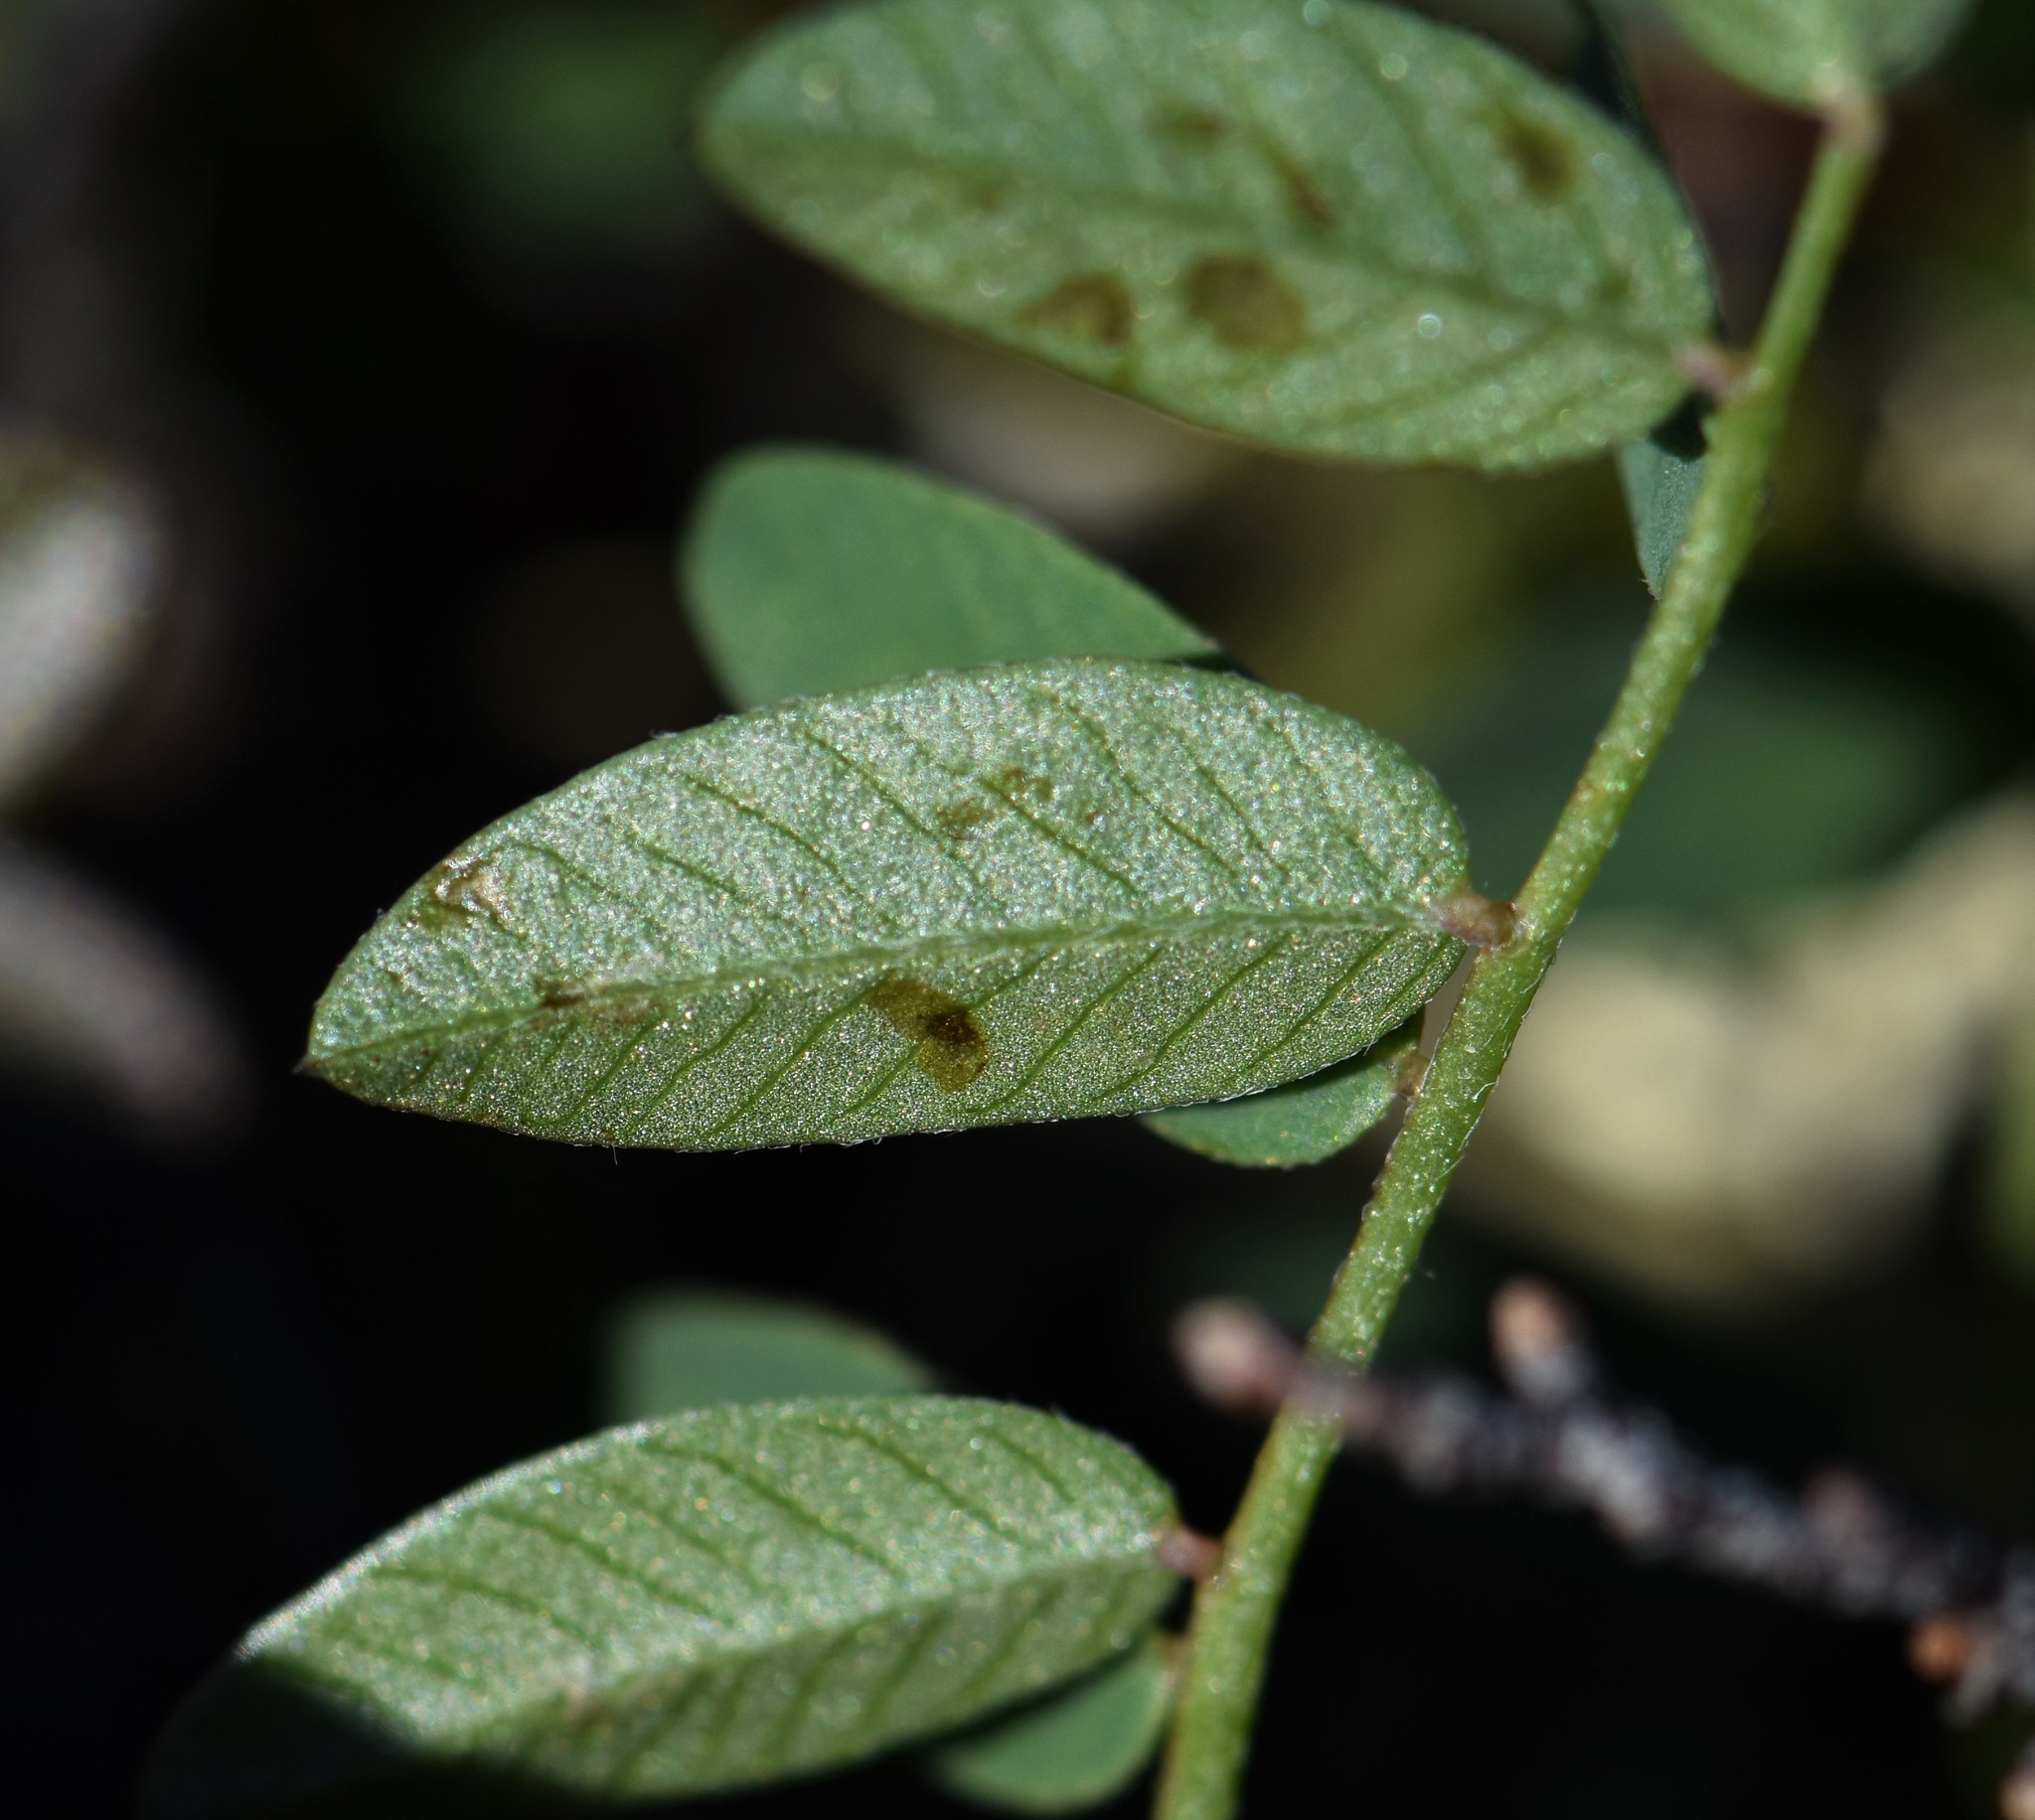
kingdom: Plantae
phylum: Tracheophyta
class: Magnoliopsida
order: Fabales
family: Fabaceae
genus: Hedysarum
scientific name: Hedysarum
